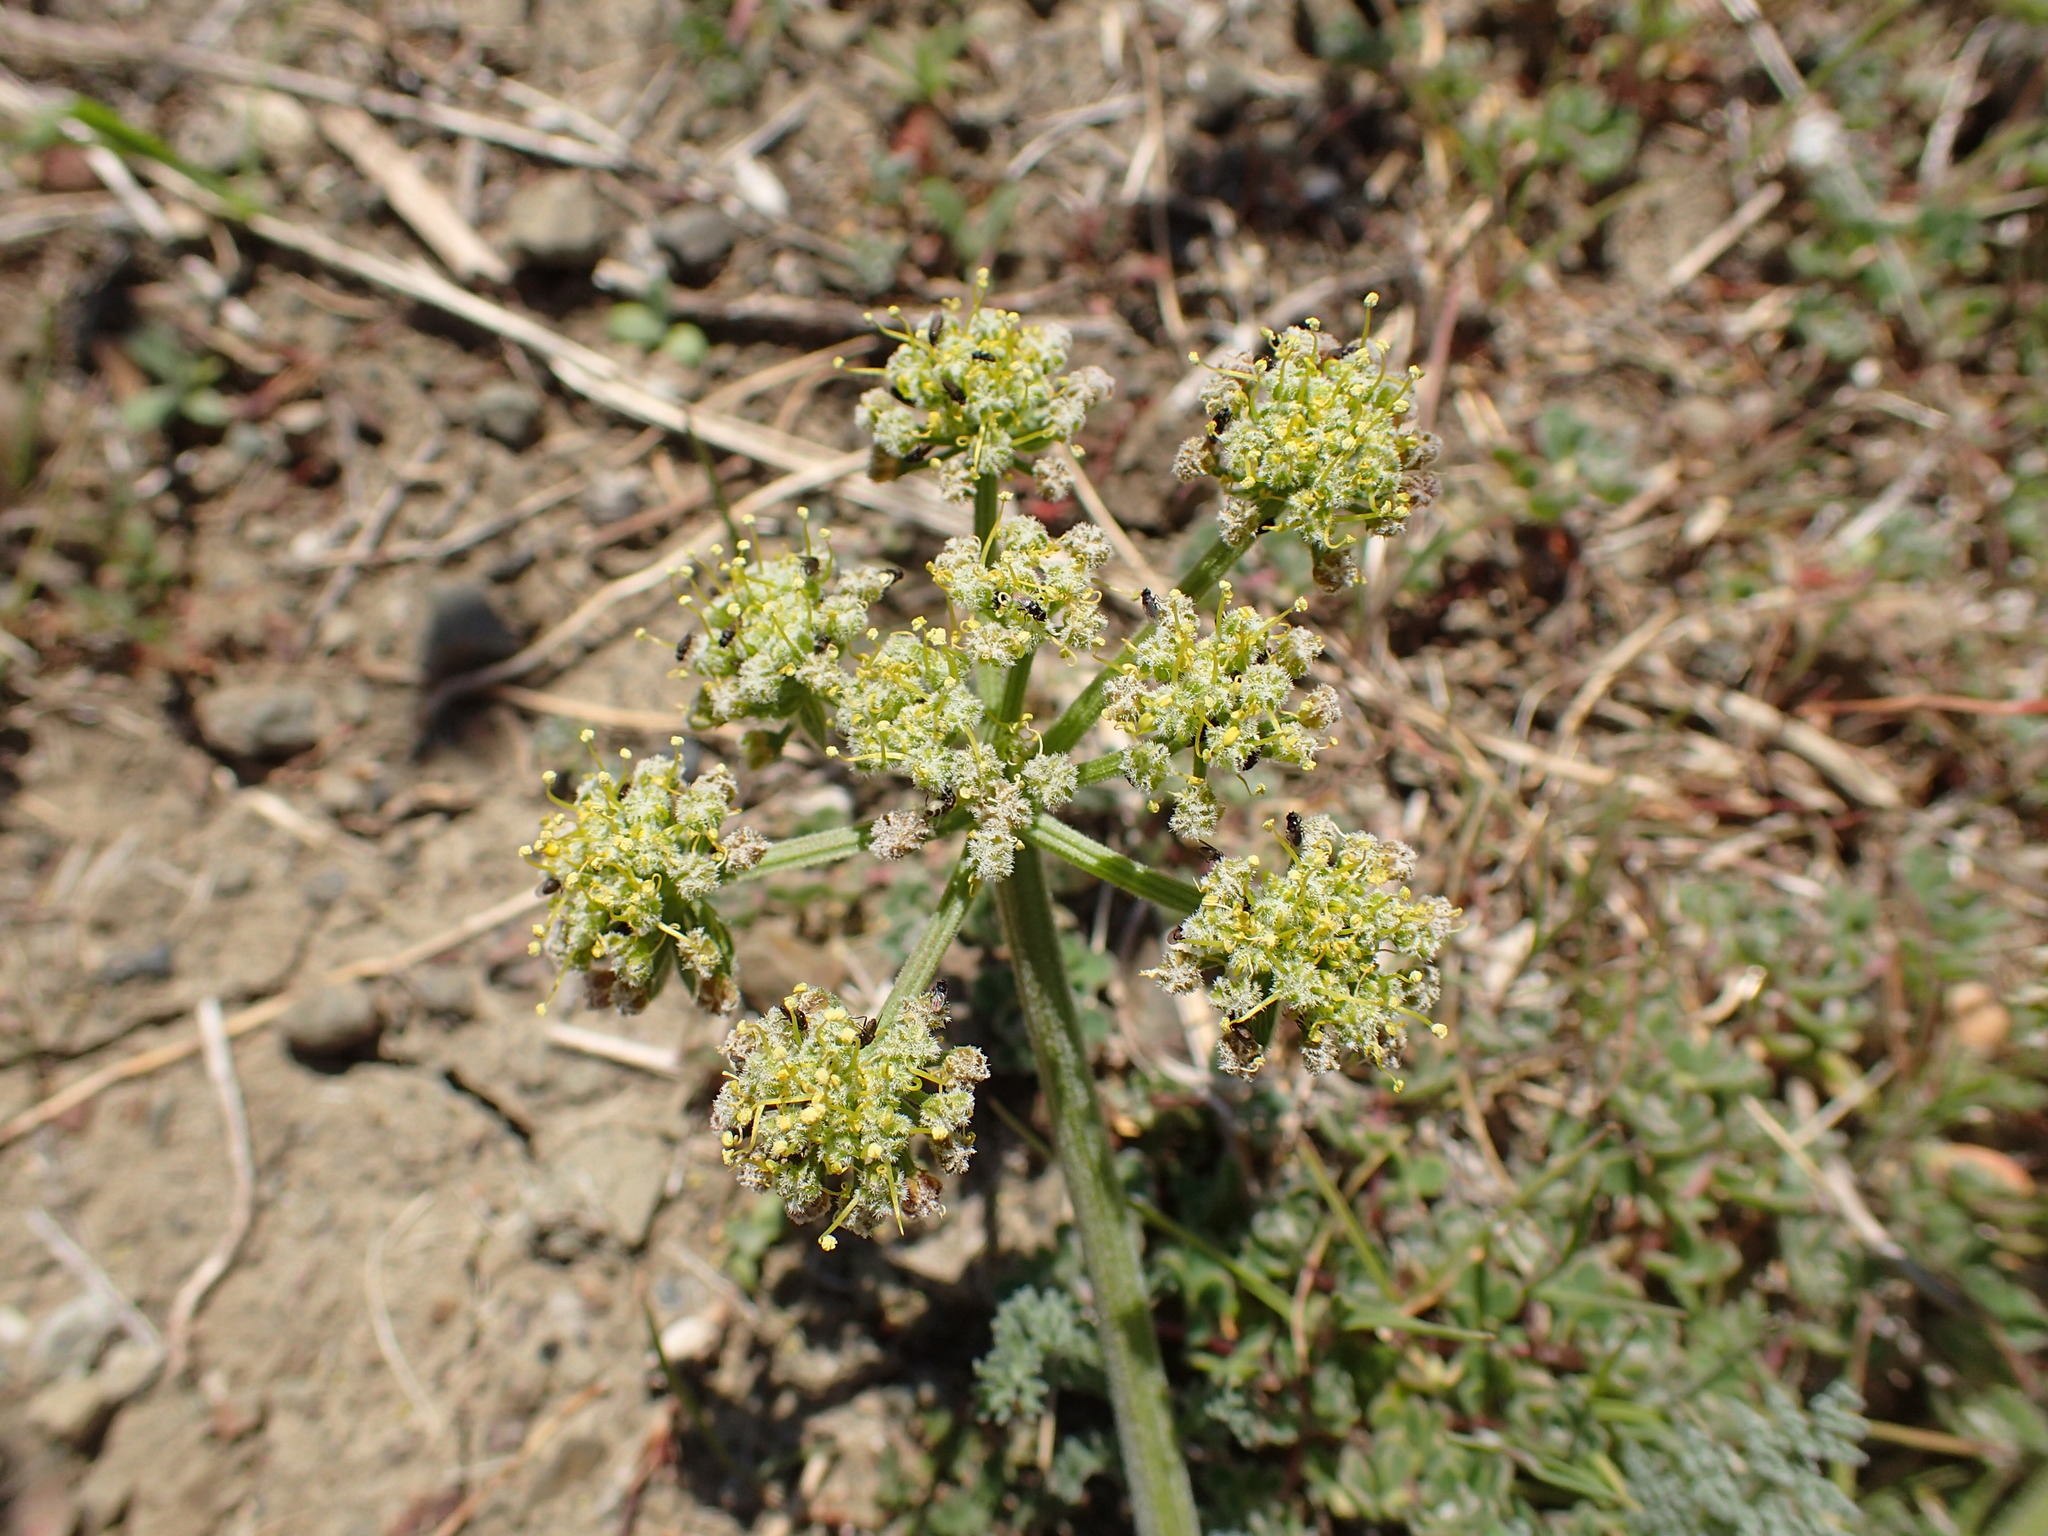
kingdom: Plantae
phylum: Tracheophyta
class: Magnoliopsida
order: Apiales
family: Apiaceae
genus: Lomatium
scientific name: Lomatium dasycarpum
